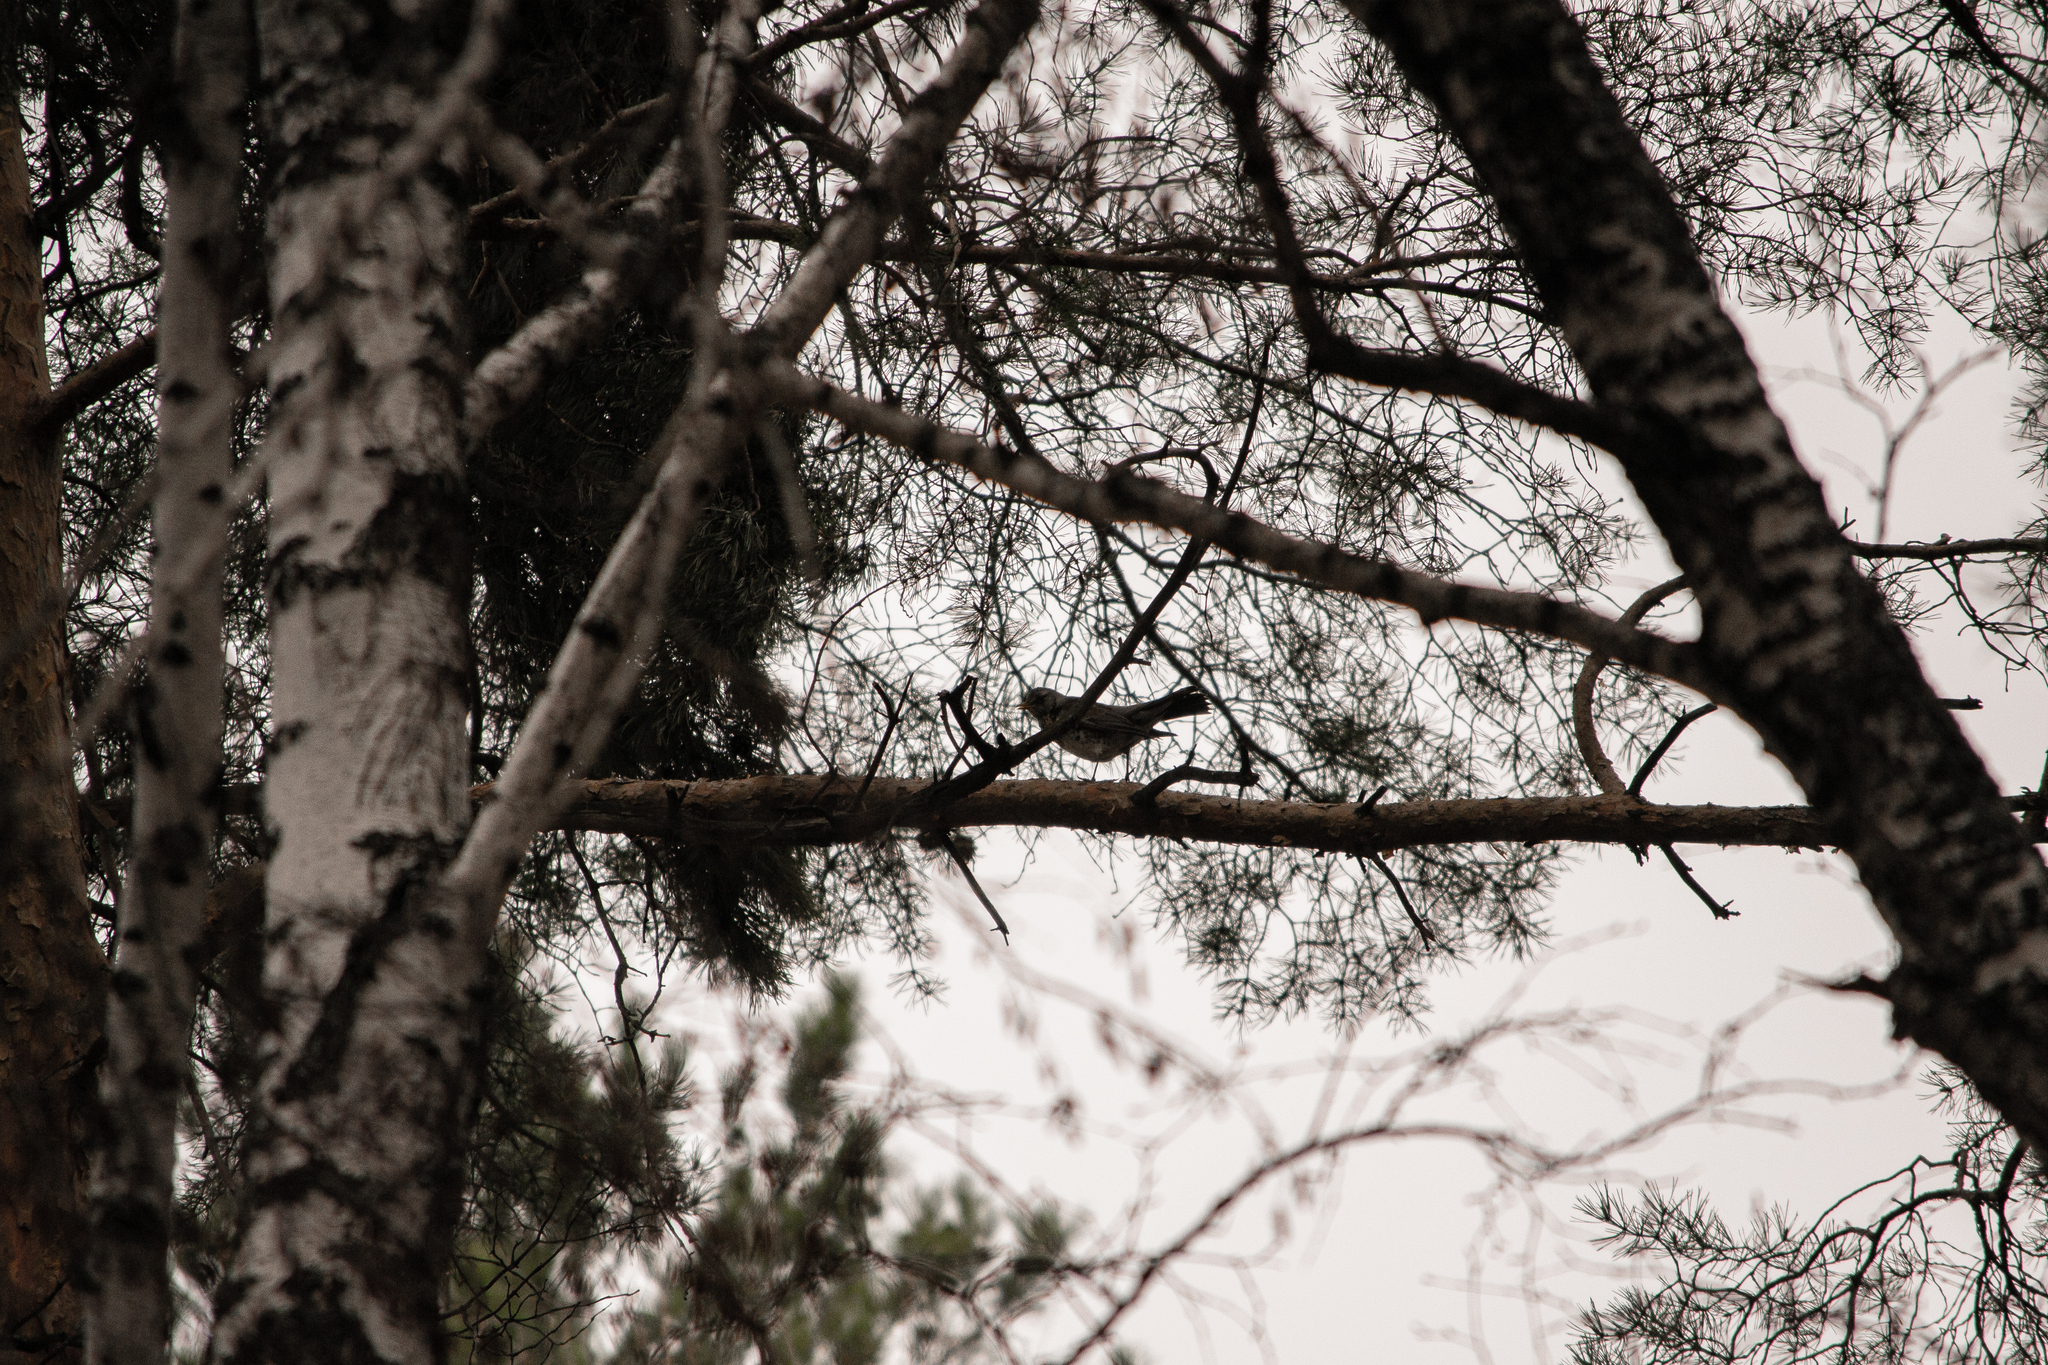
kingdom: Animalia
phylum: Chordata
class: Aves
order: Passeriformes
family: Turdidae
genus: Turdus
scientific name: Turdus pilaris
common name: Fieldfare
